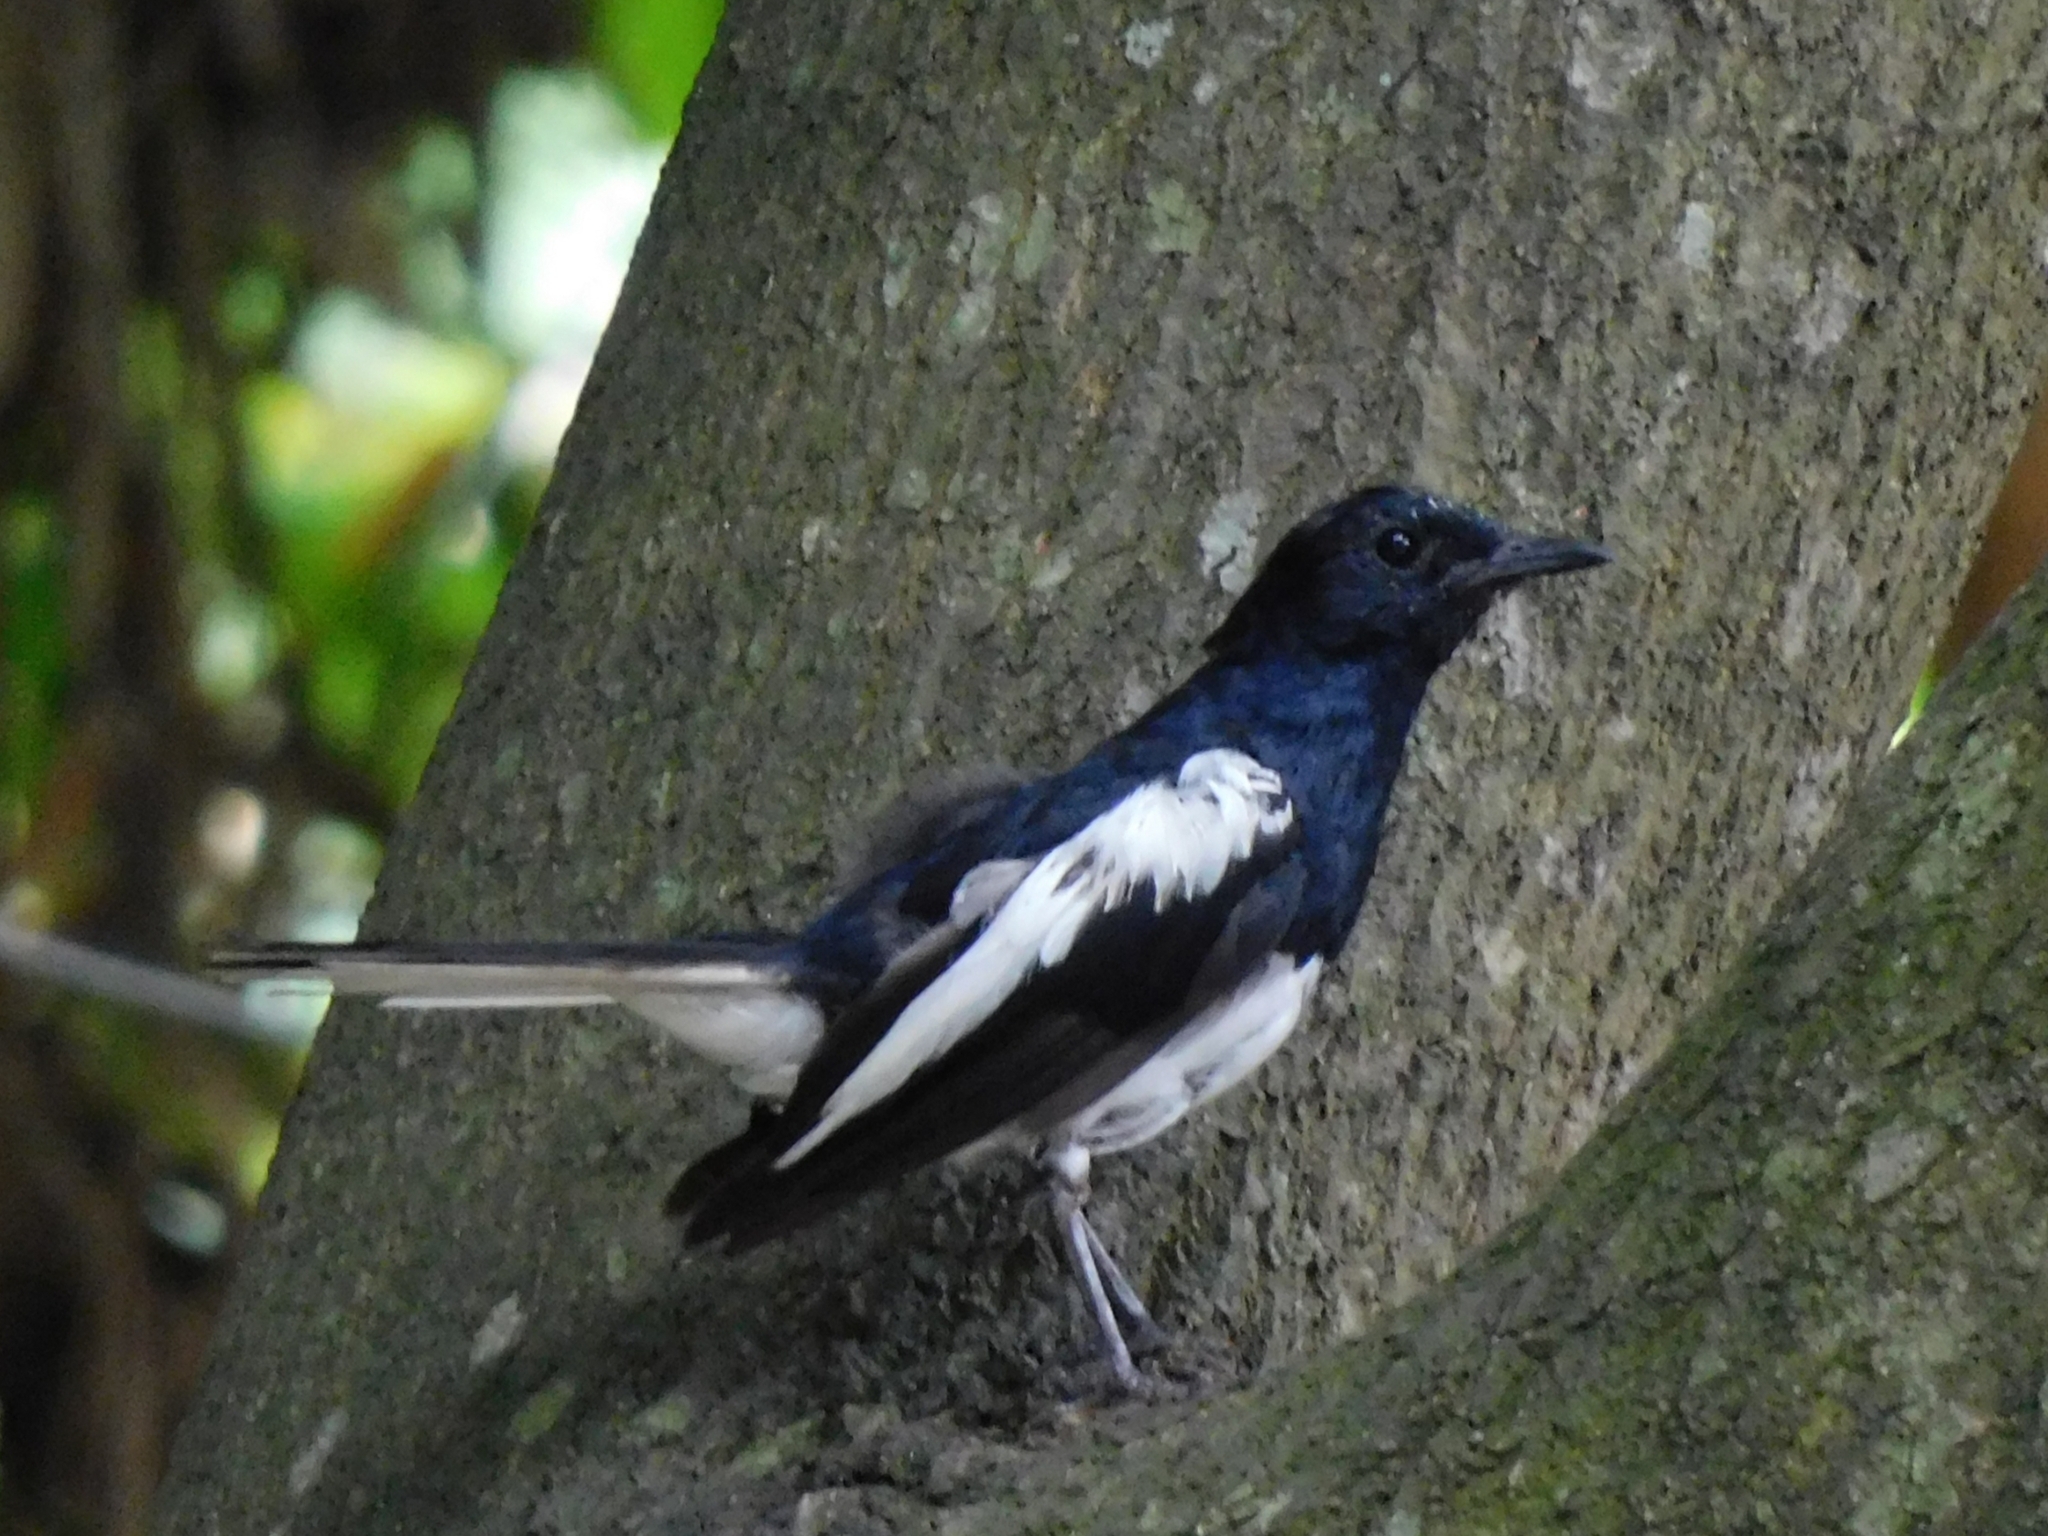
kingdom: Animalia
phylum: Chordata
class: Aves
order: Passeriformes
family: Muscicapidae
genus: Copsychus
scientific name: Copsychus saularis
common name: Oriental magpie-robin
